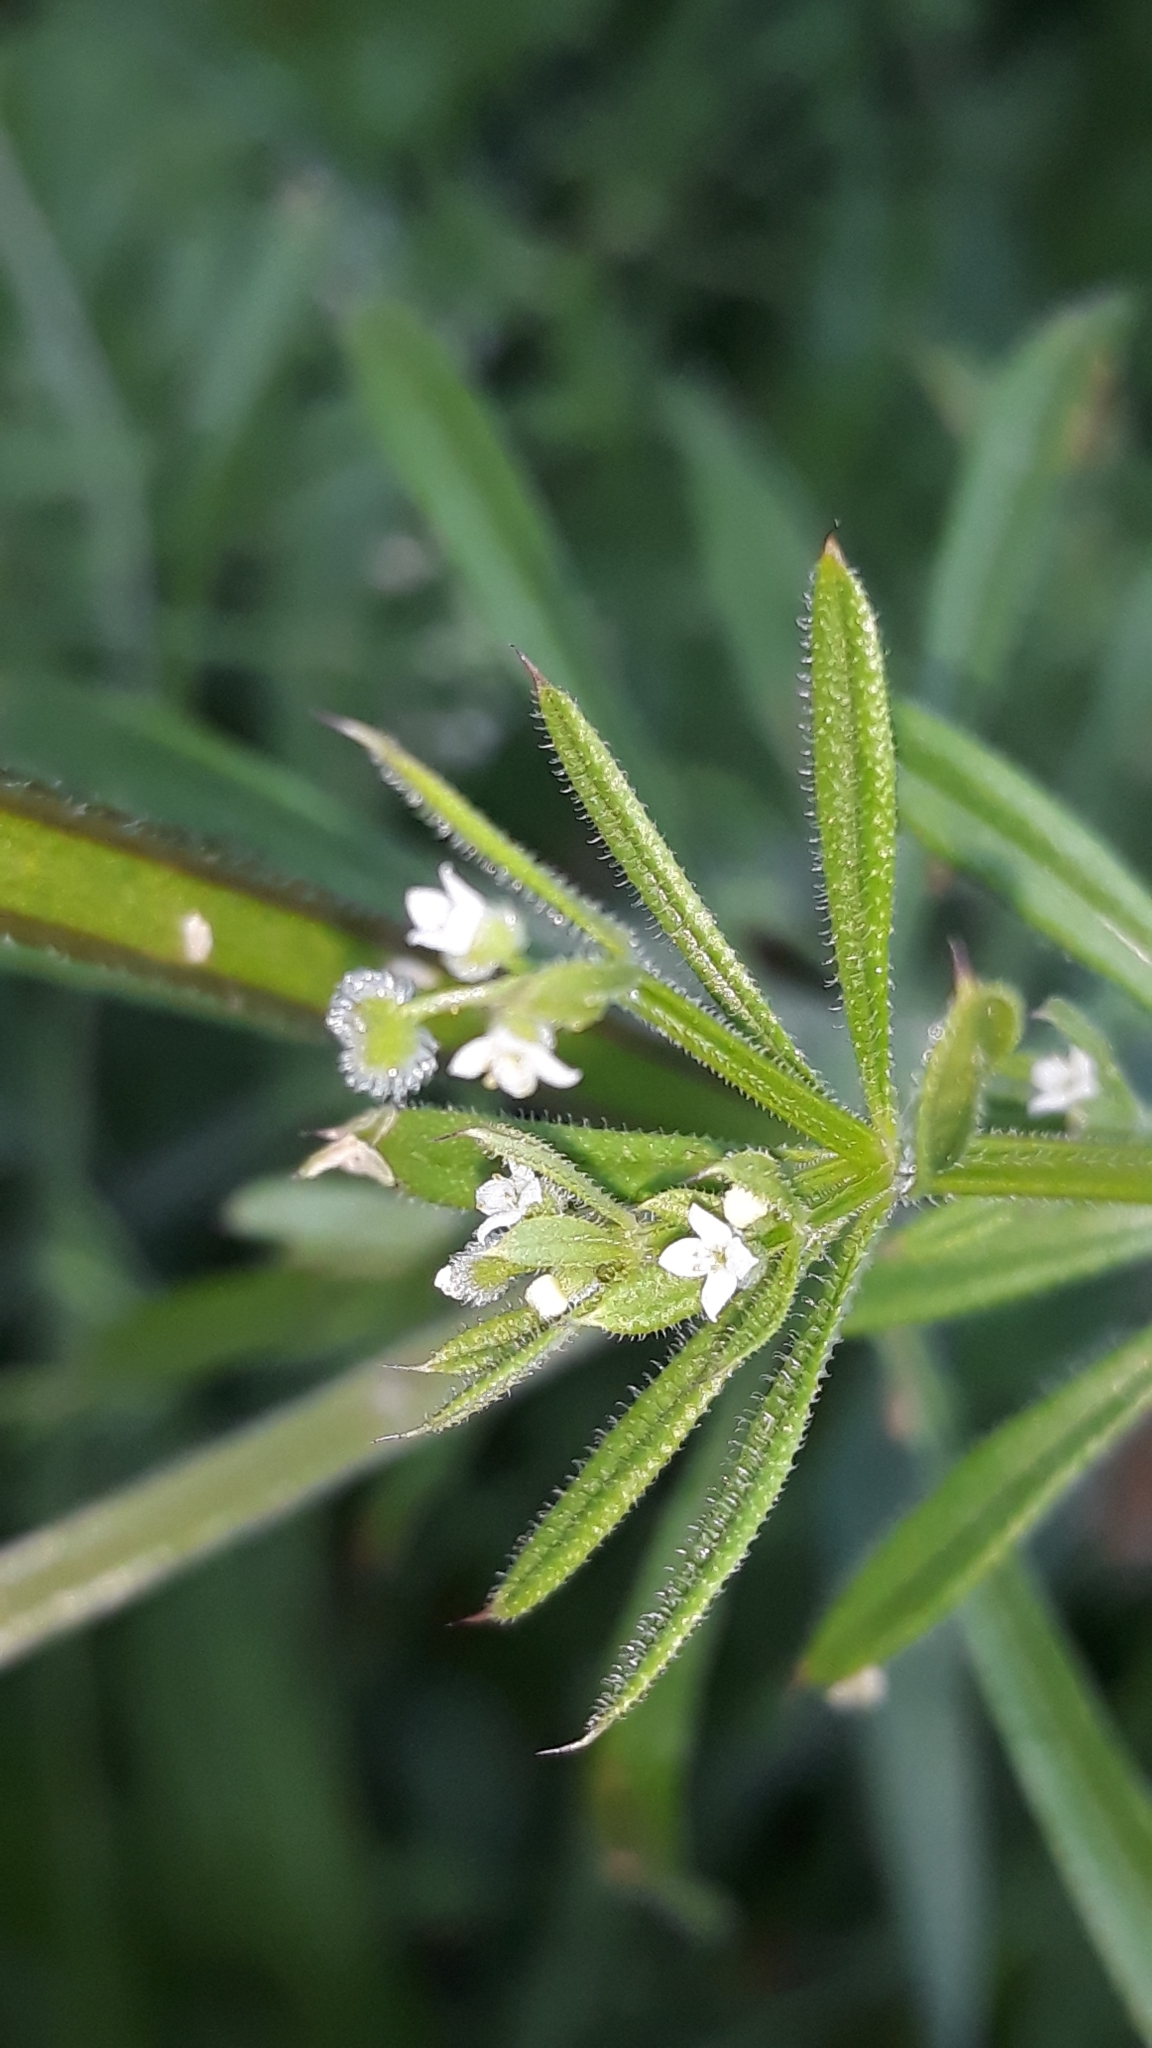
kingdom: Plantae
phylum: Tracheophyta
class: Magnoliopsida
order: Gentianales
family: Rubiaceae
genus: Galium
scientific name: Galium aparine
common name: Cleavers
